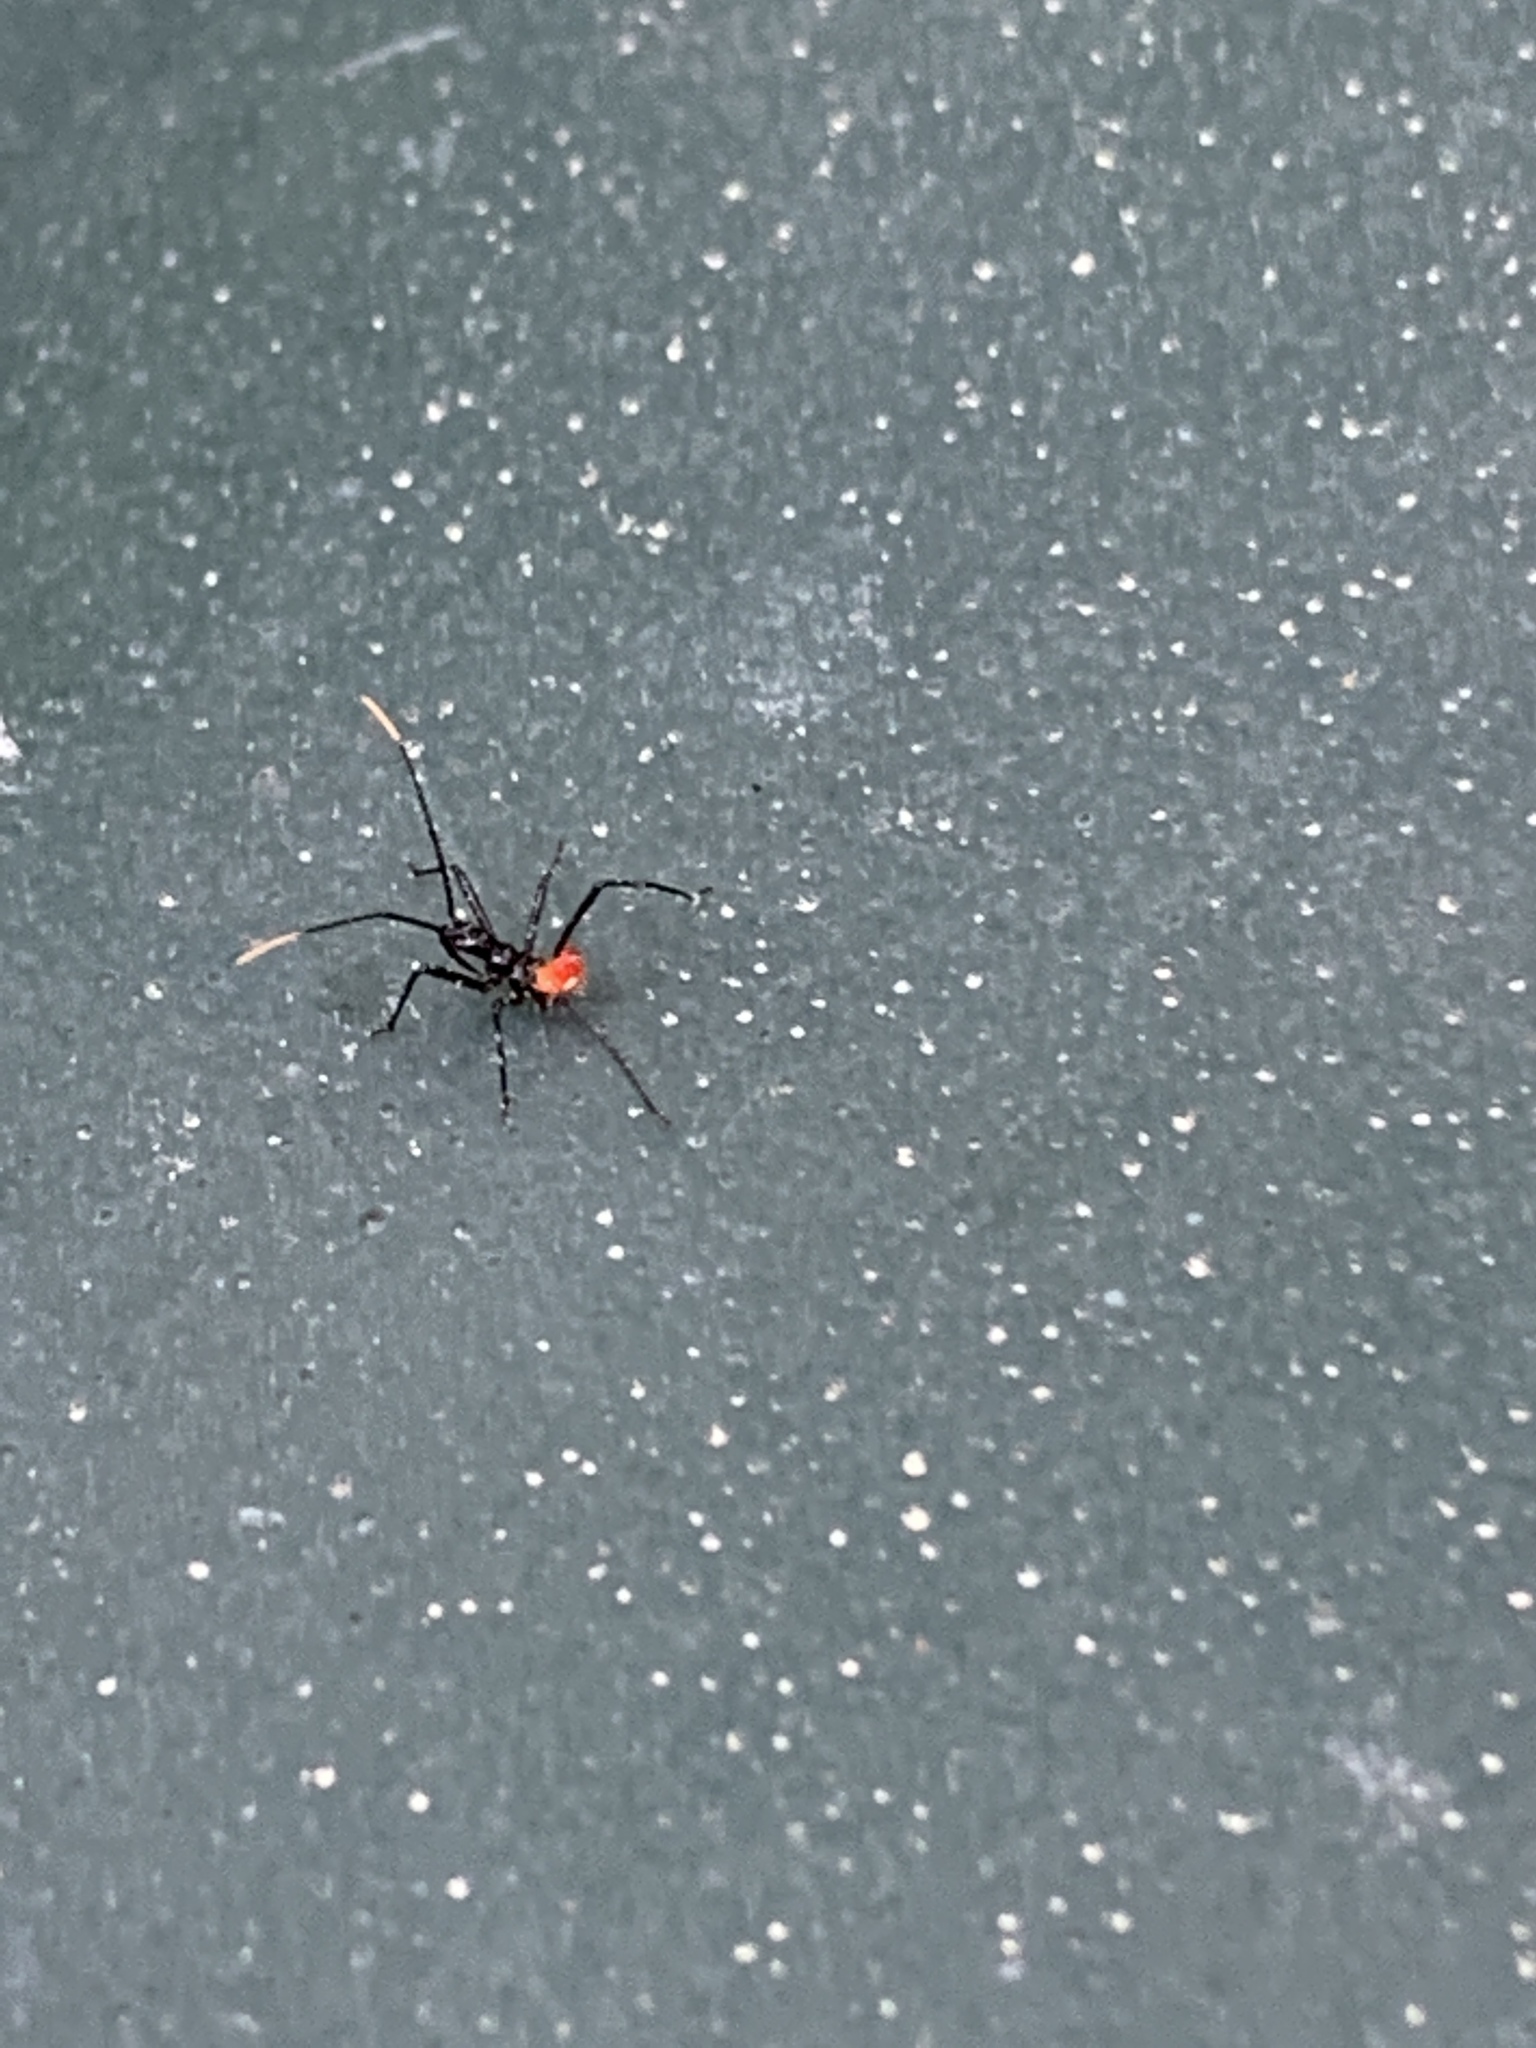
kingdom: Animalia
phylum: Arthropoda
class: Insecta
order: Hemiptera
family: Reduviidae
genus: Arilus
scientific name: Arilus cristatus
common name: North american wheel bug
